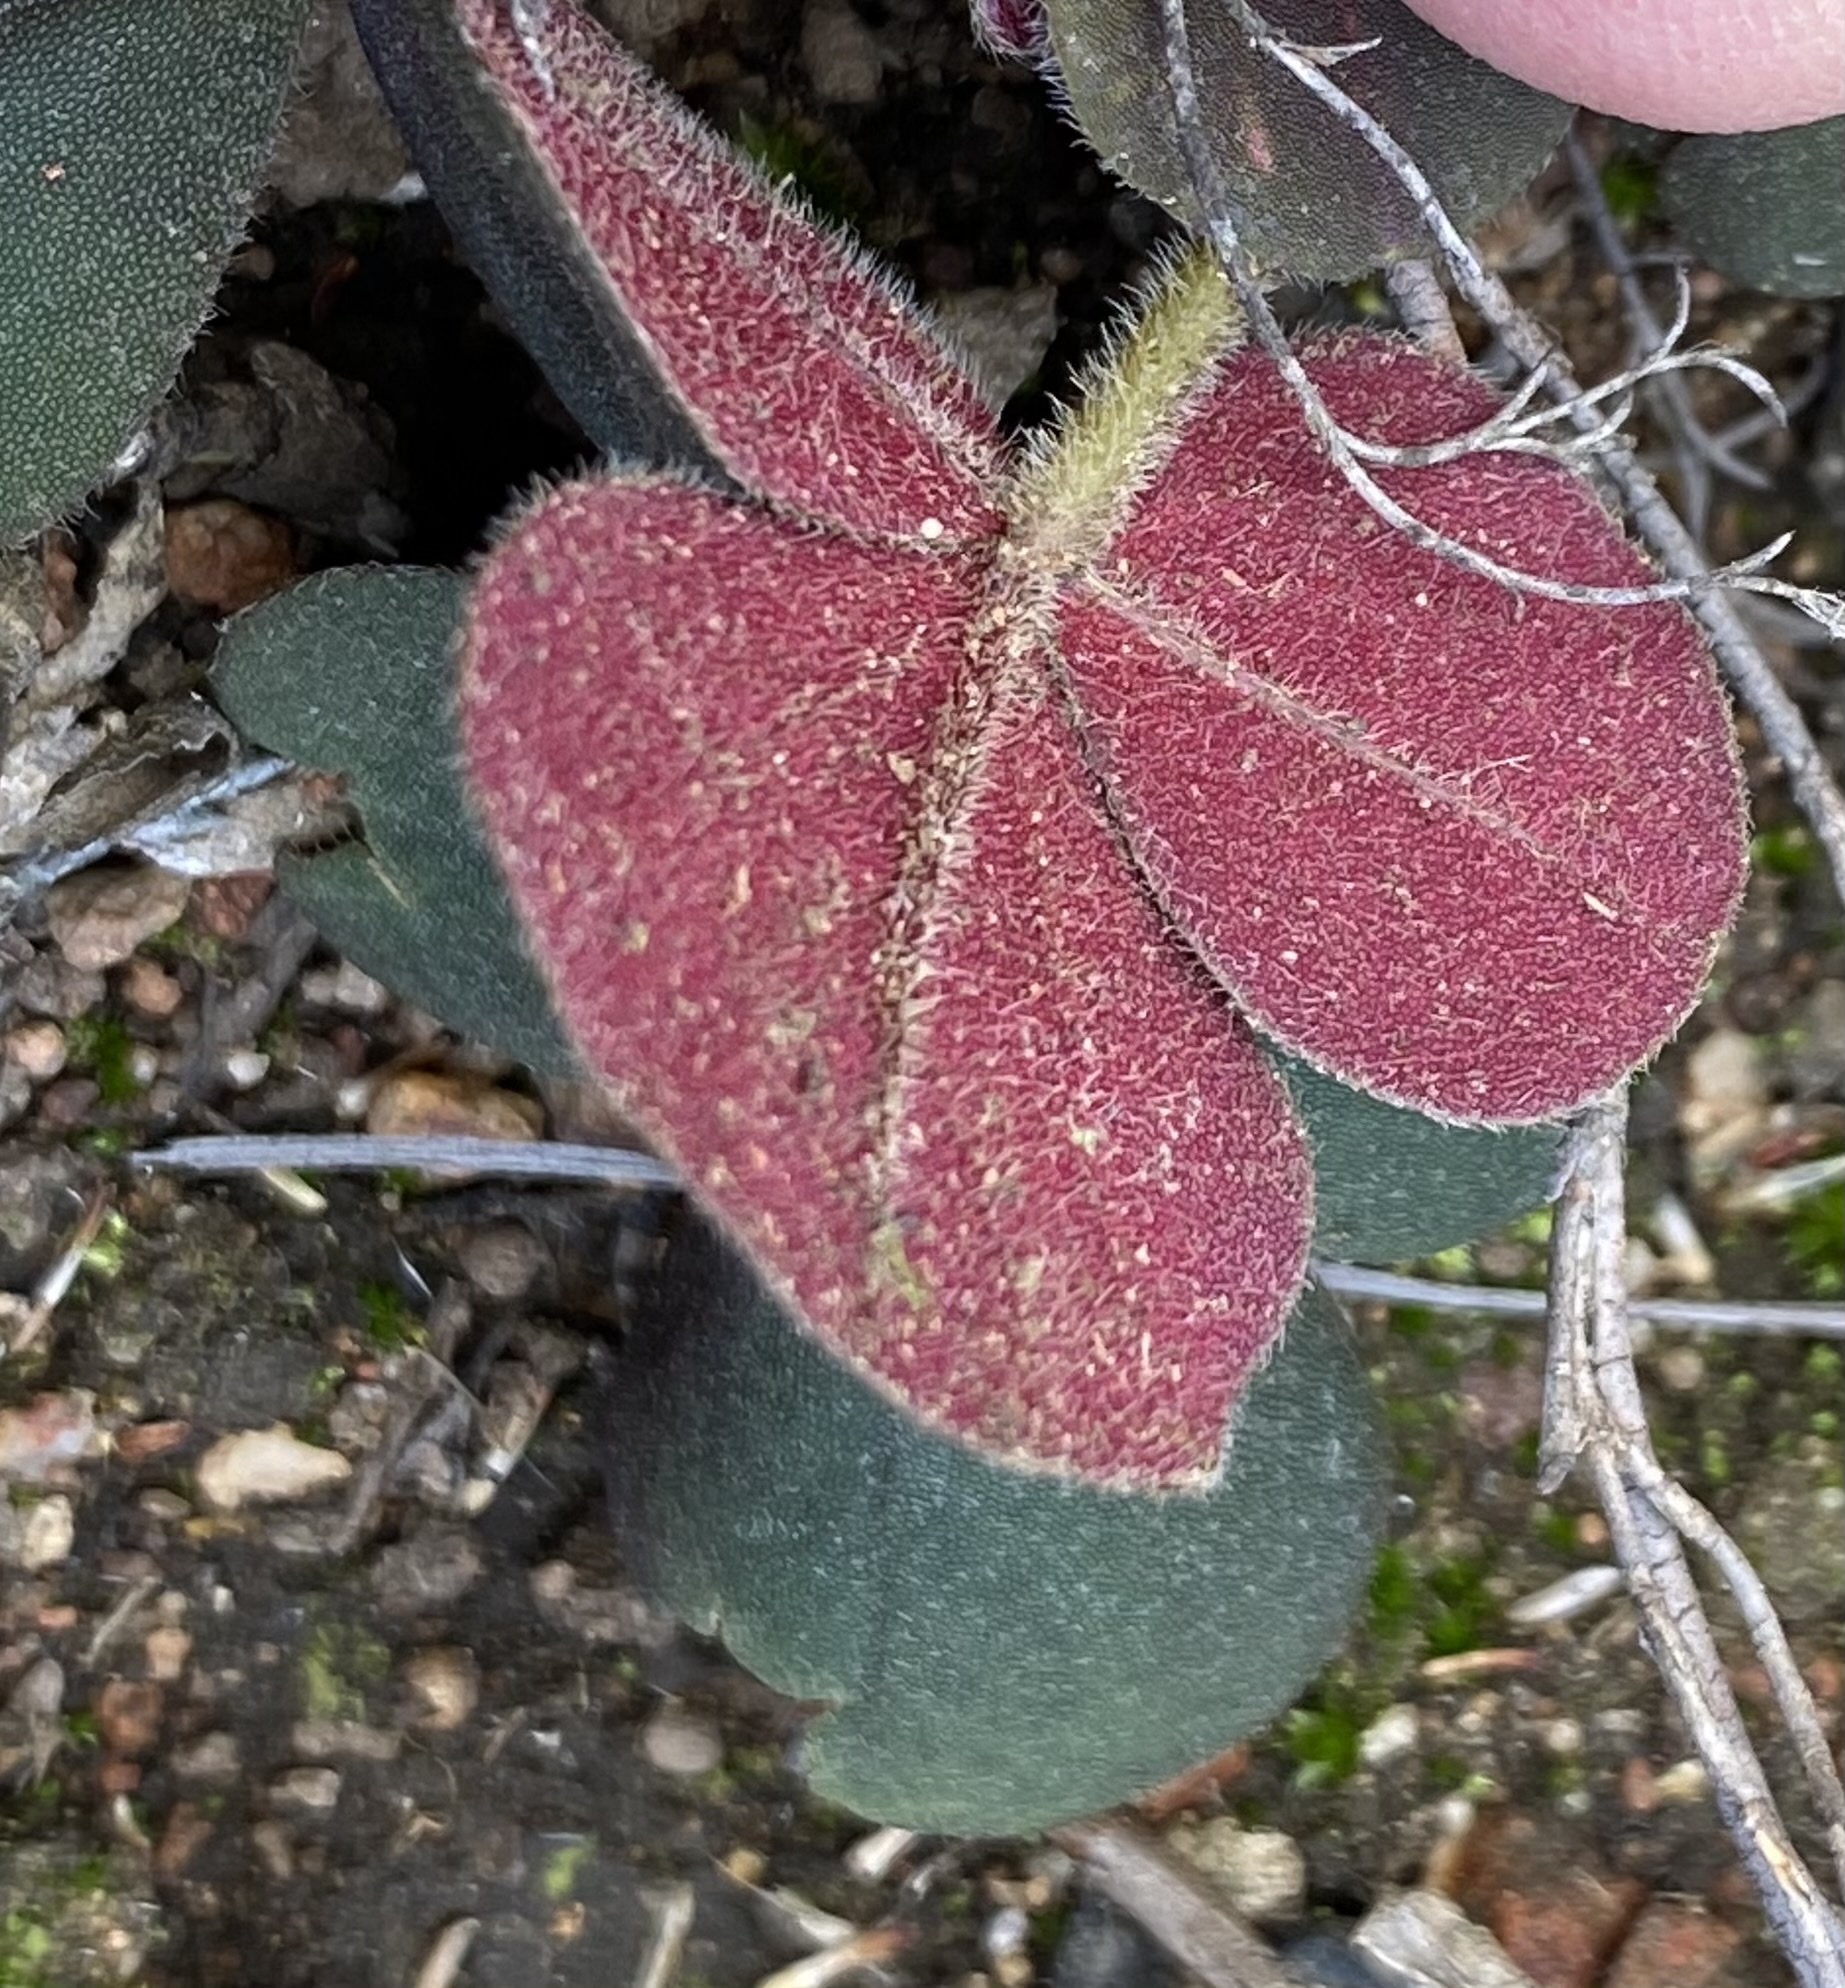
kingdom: Plantae
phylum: Tracheophyta
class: Magnoliopsida
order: Oxalidales
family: Oxalidaceae
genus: Oxalis
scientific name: Oxalis algoensis
